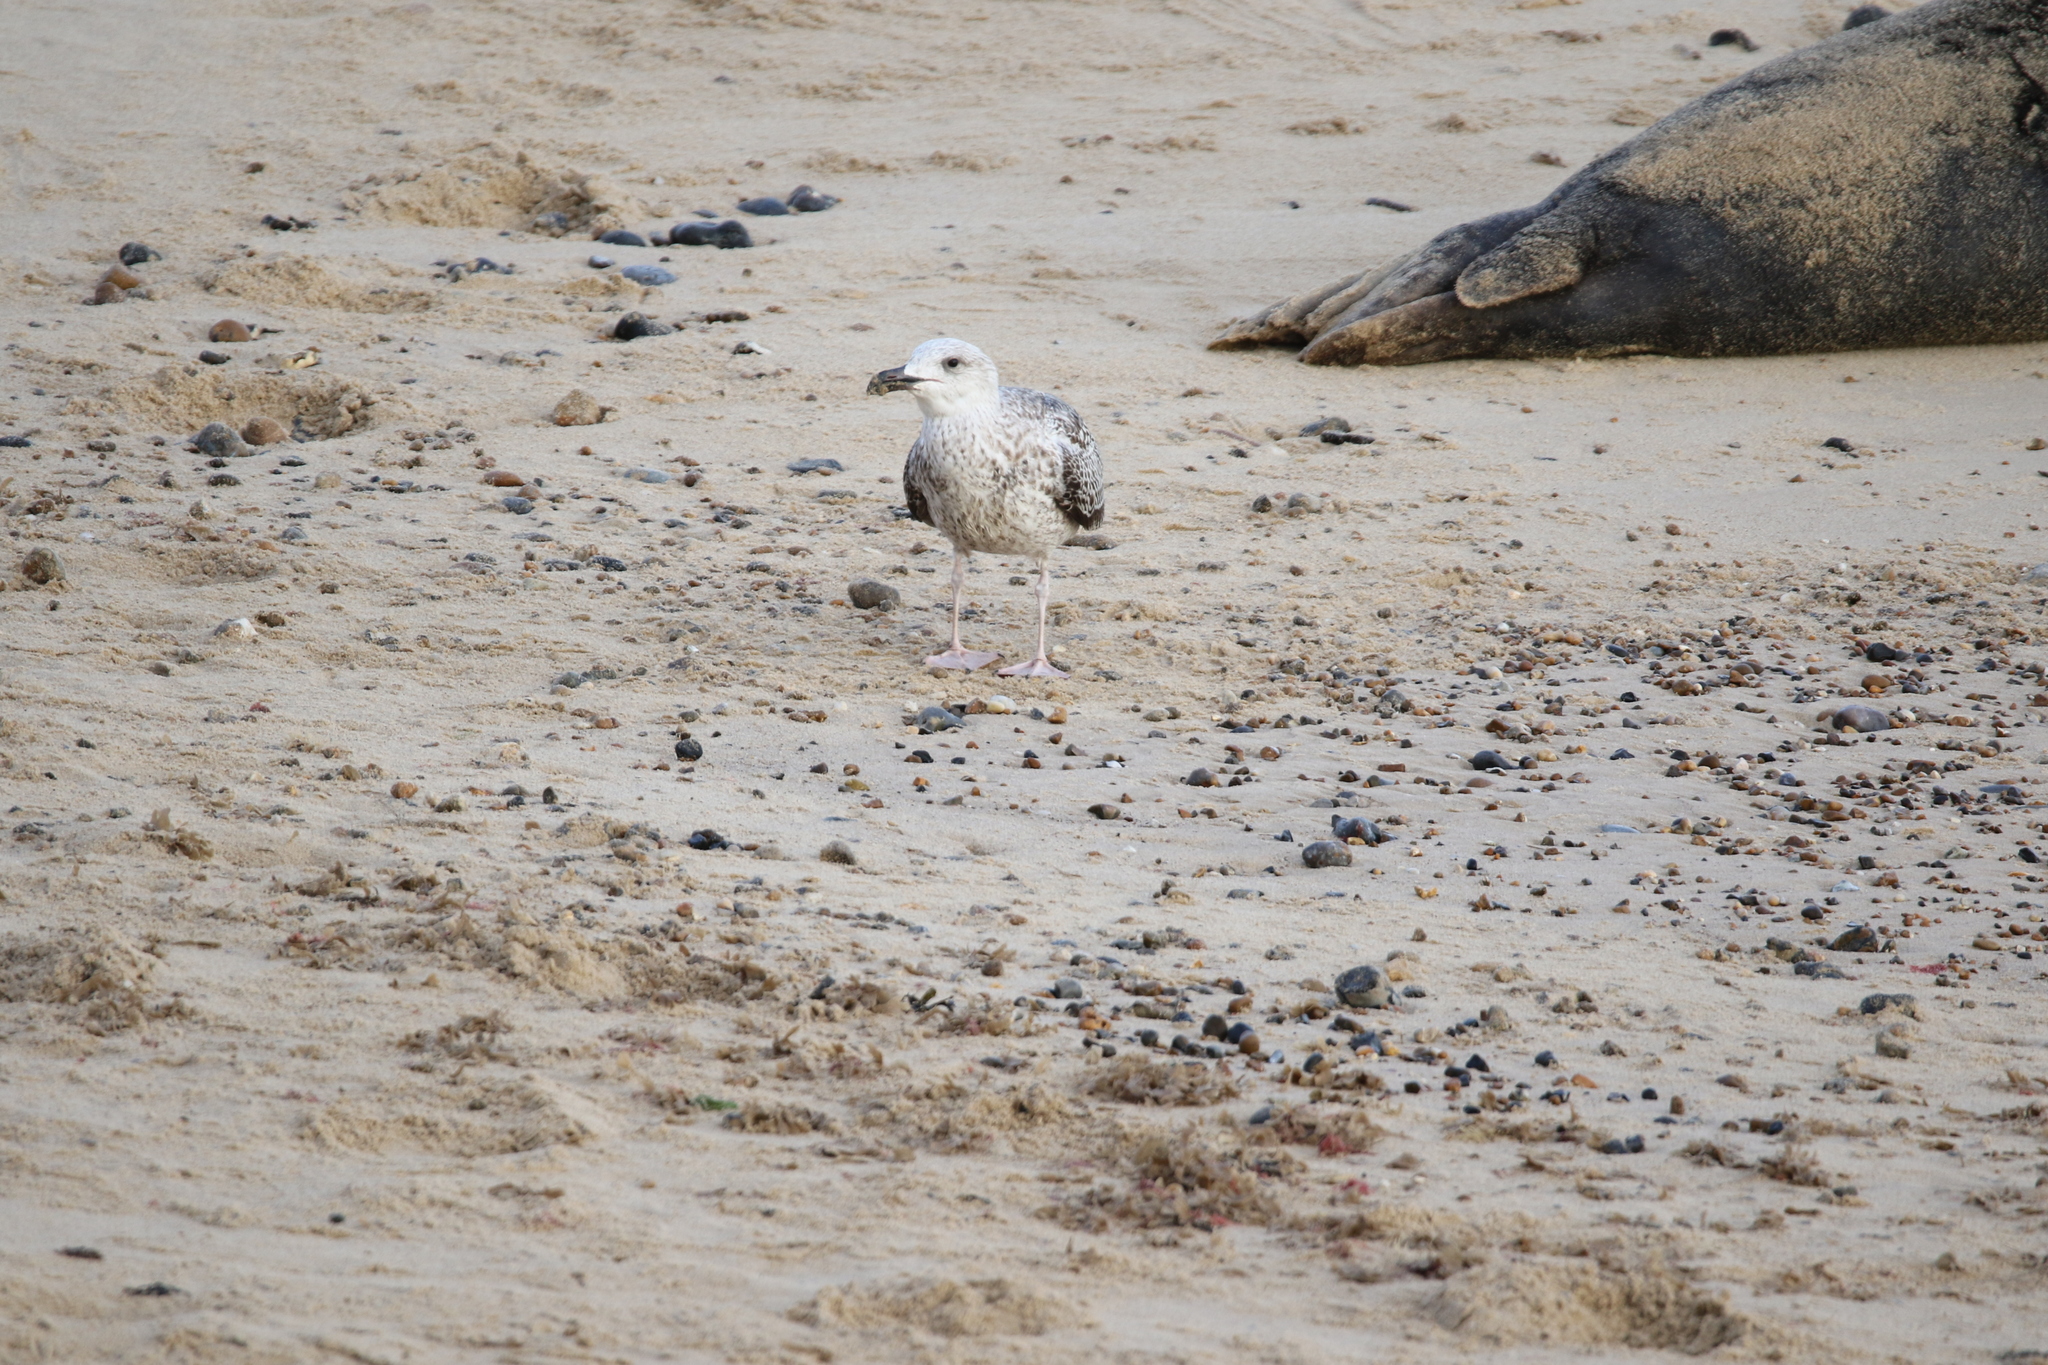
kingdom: Animalia
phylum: Chordata
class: Aves
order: Charadriiformes
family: Laridae
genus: Larus
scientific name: Larus marinus
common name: Great black-backed gull
